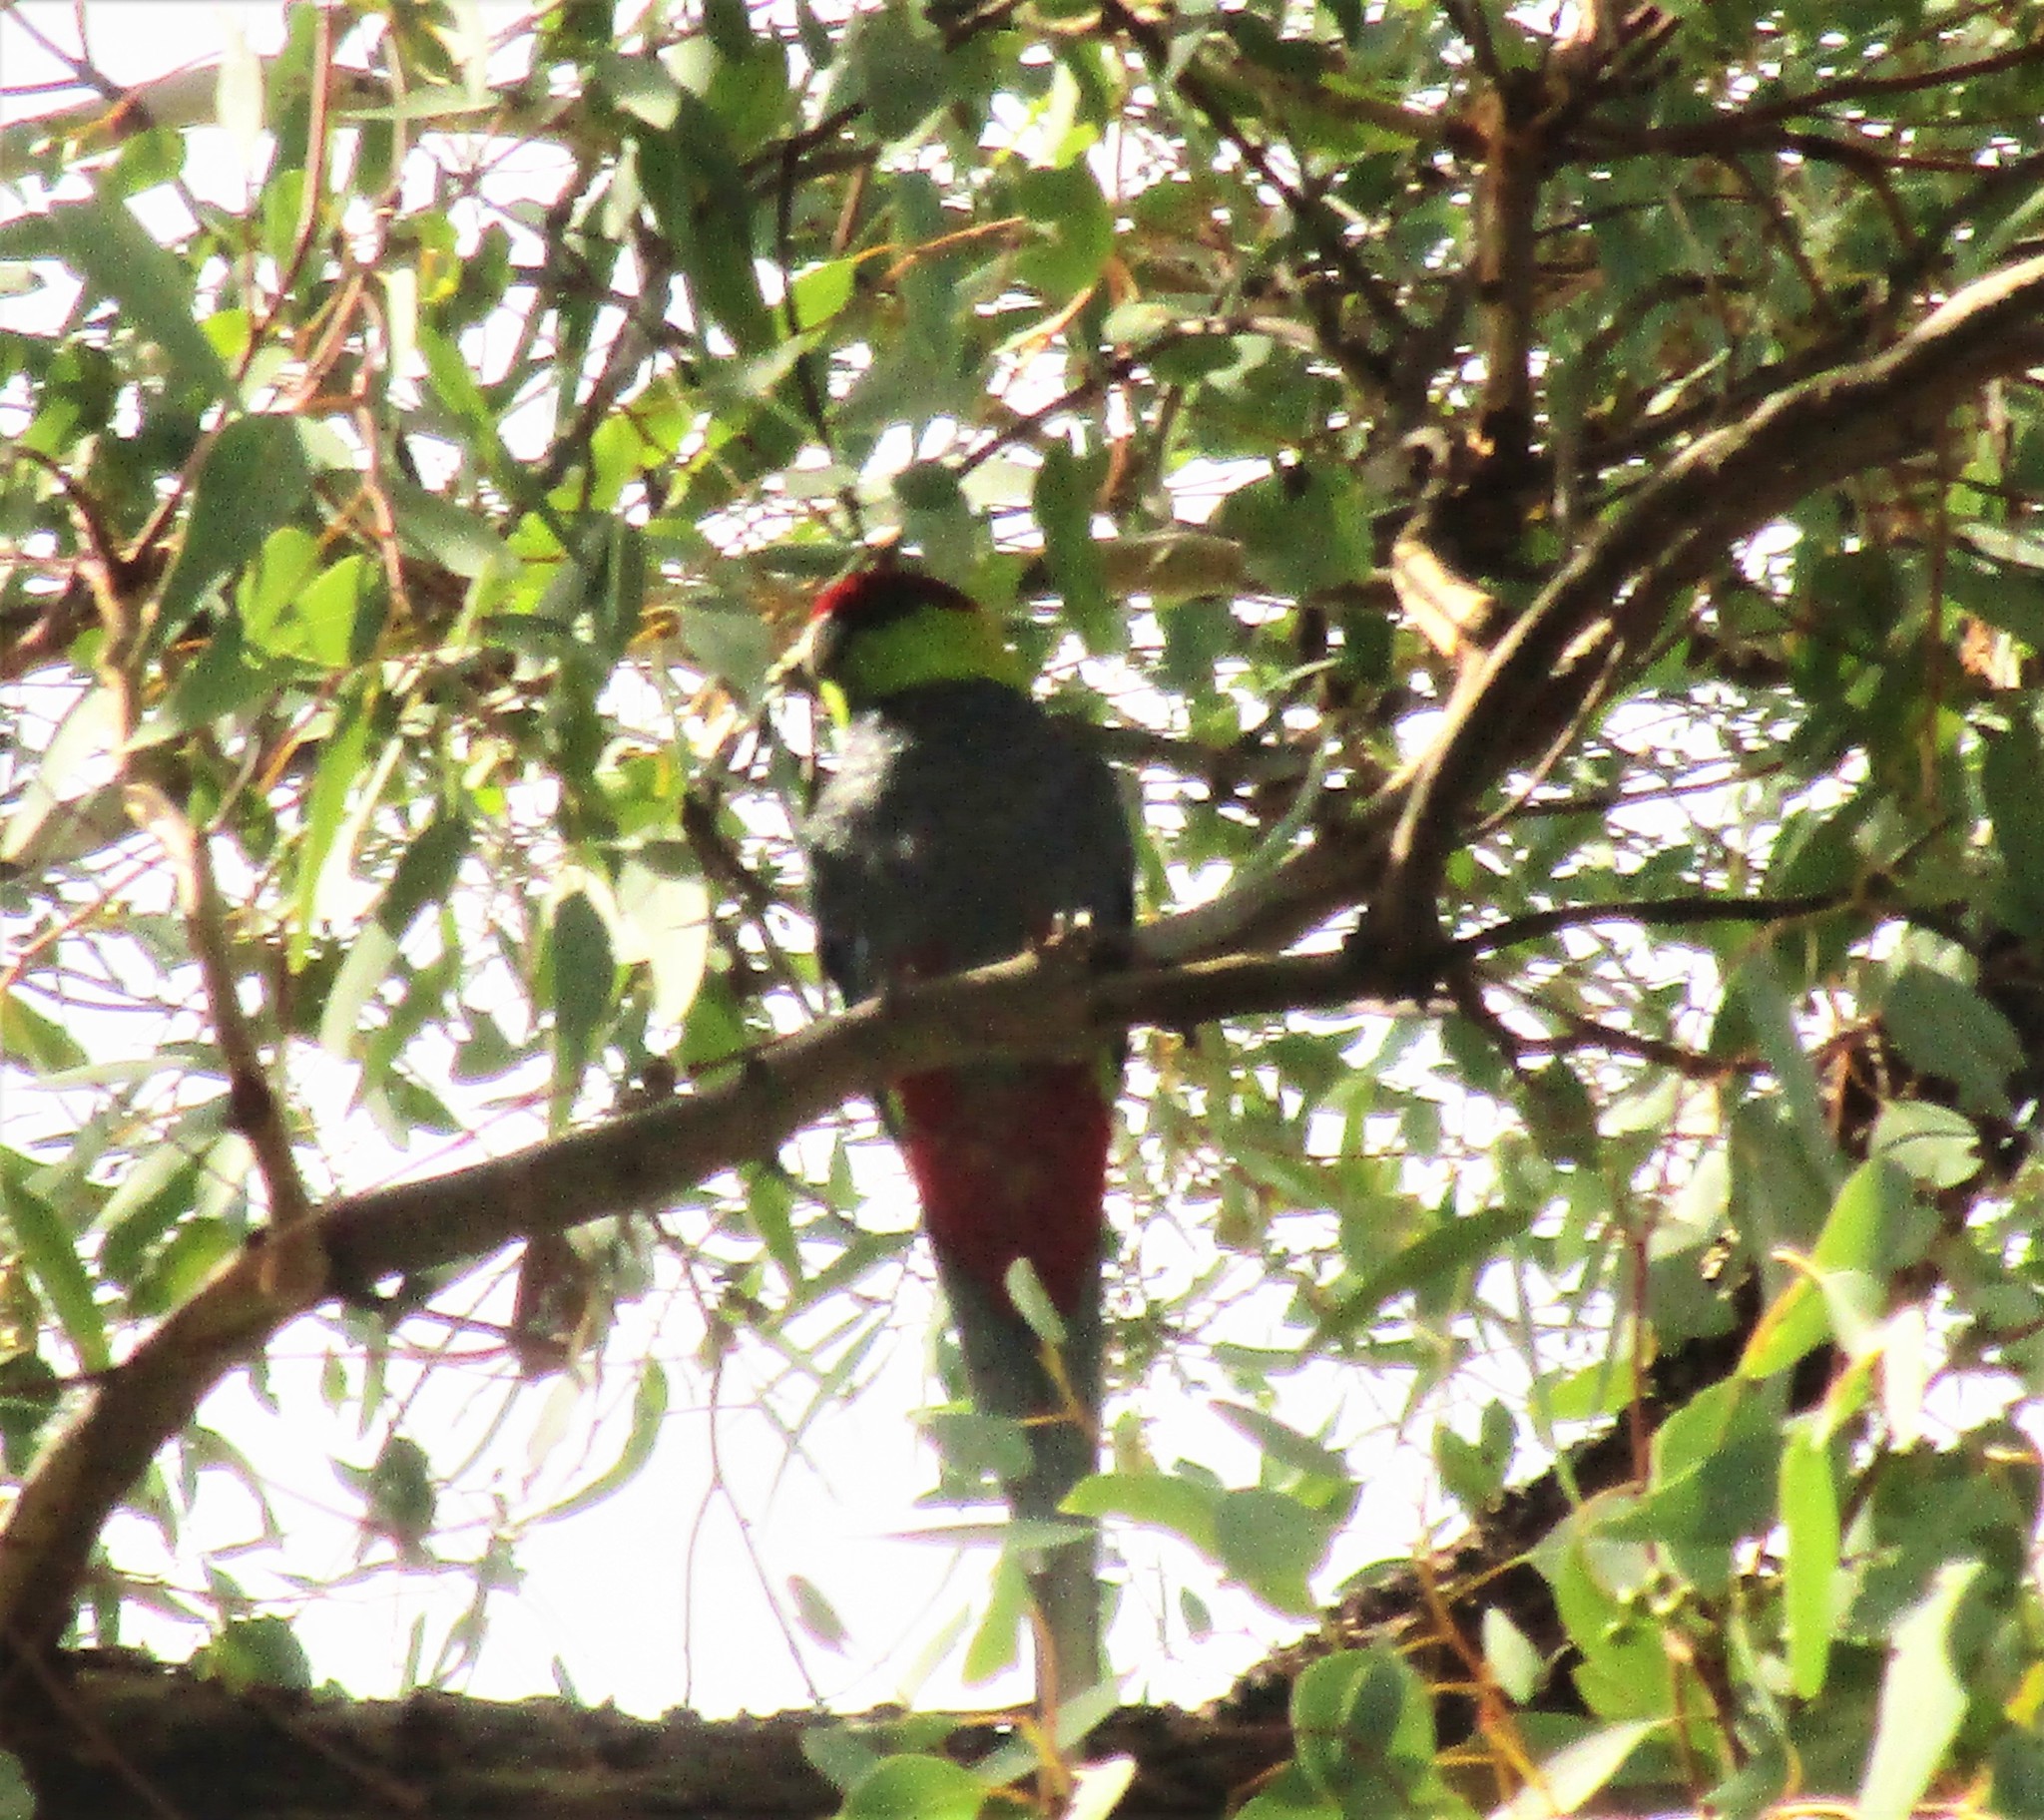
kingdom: Animalia
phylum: Chordata
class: Aves
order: Psittaciformes
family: Psittacidae
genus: Purpureicephalus
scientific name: Purpureicephalus spurius
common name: Red-capped parrot
